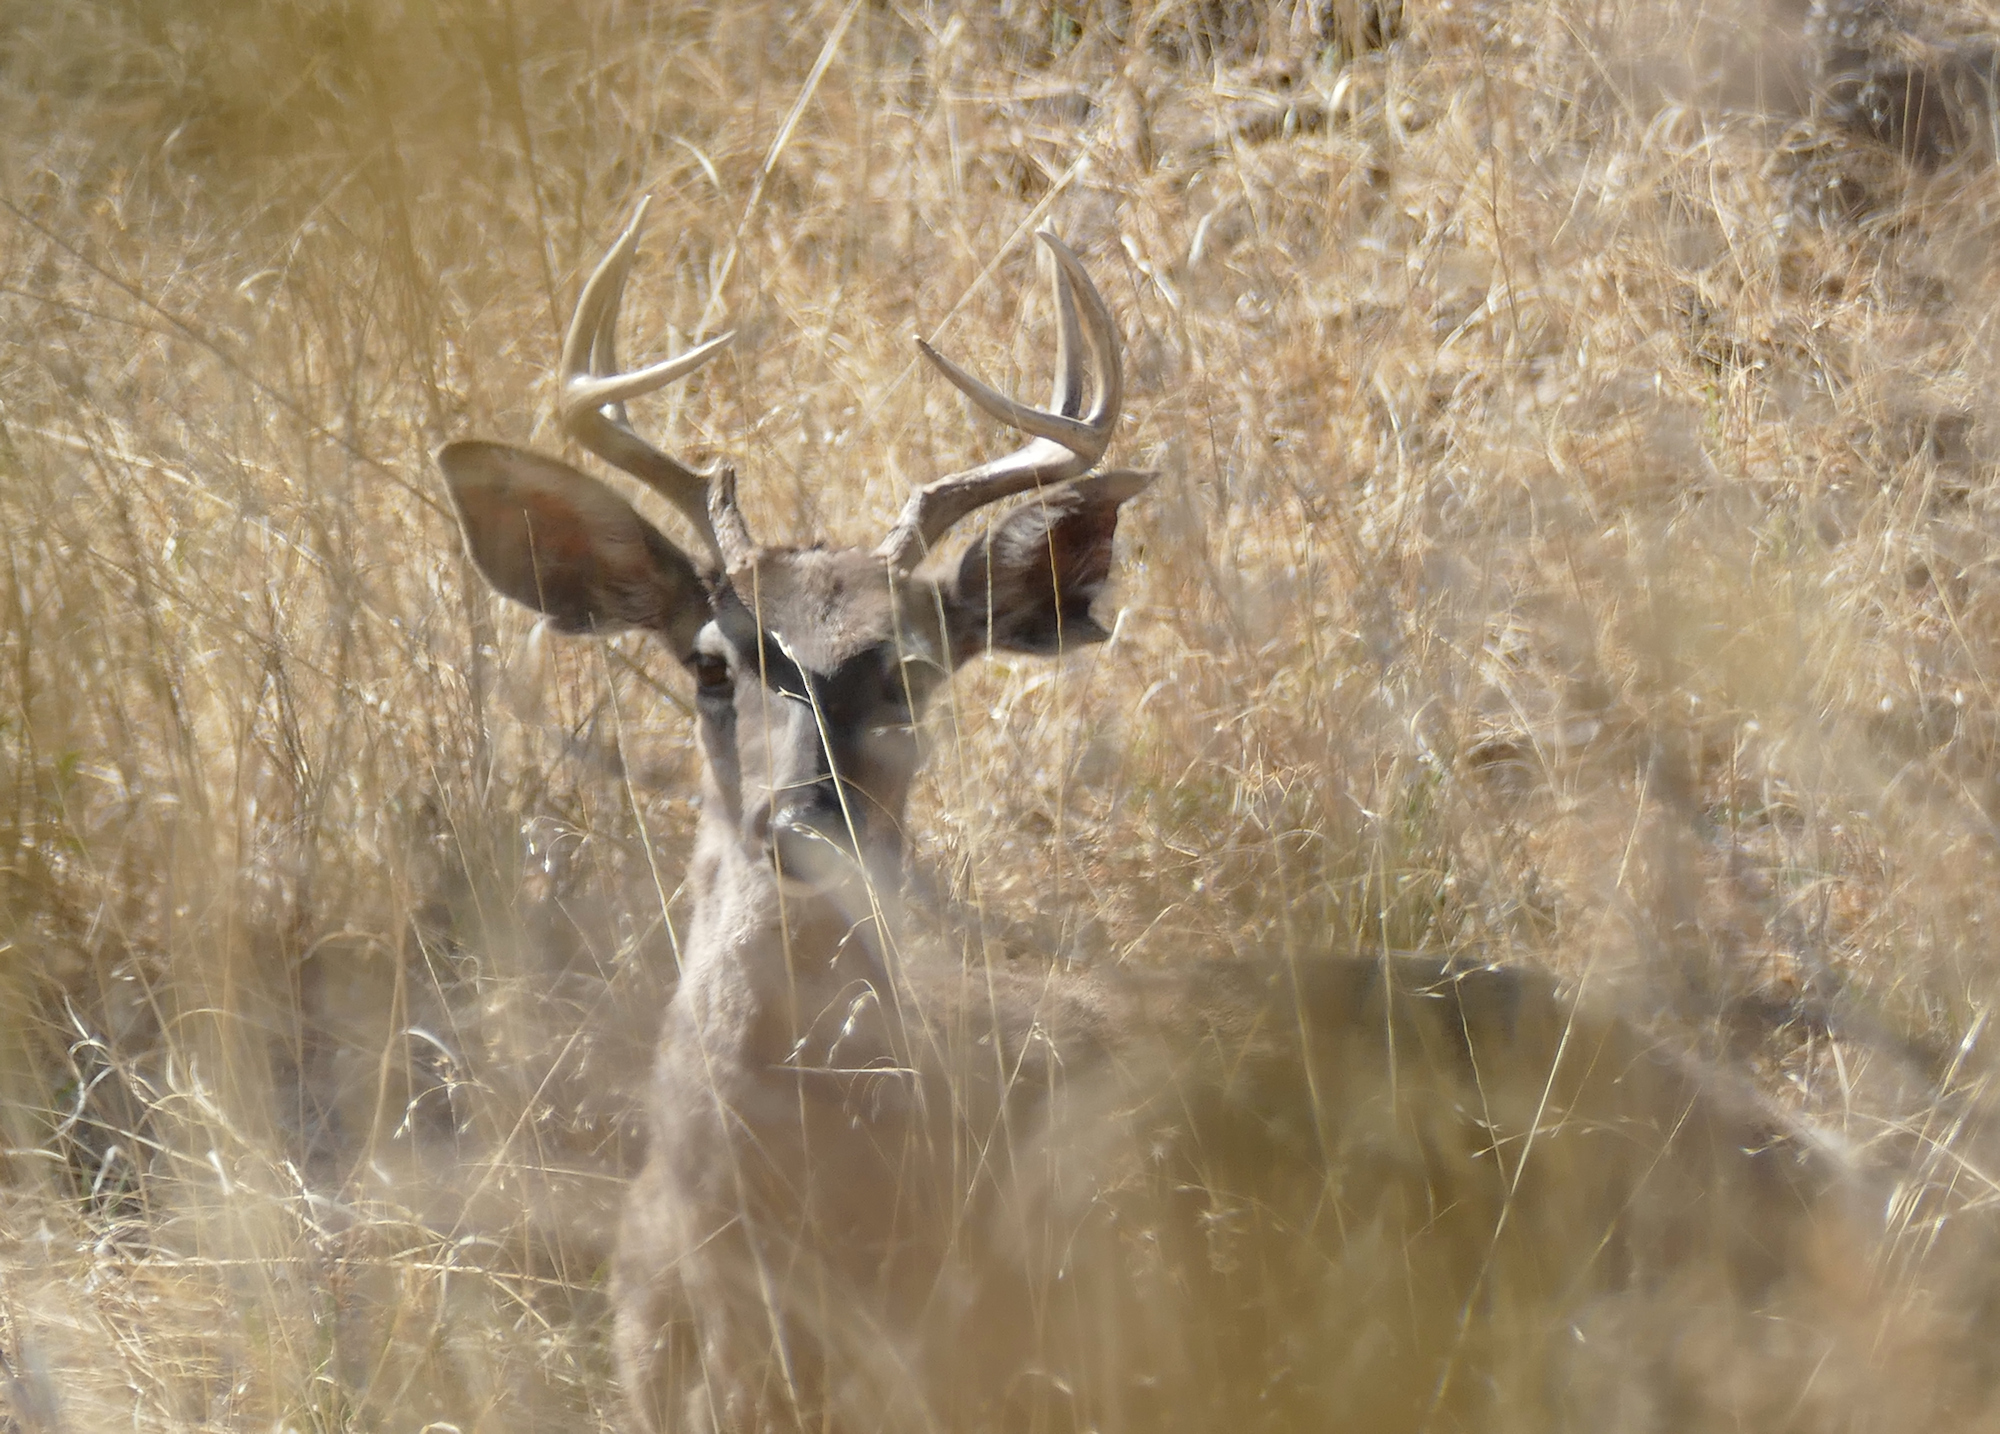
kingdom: Animalia
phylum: Chordata
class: Mammalia
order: Artiodactyla
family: Cervidae
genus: Odocoileus
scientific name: Odocoileus virginianus
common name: White-tailed deer
